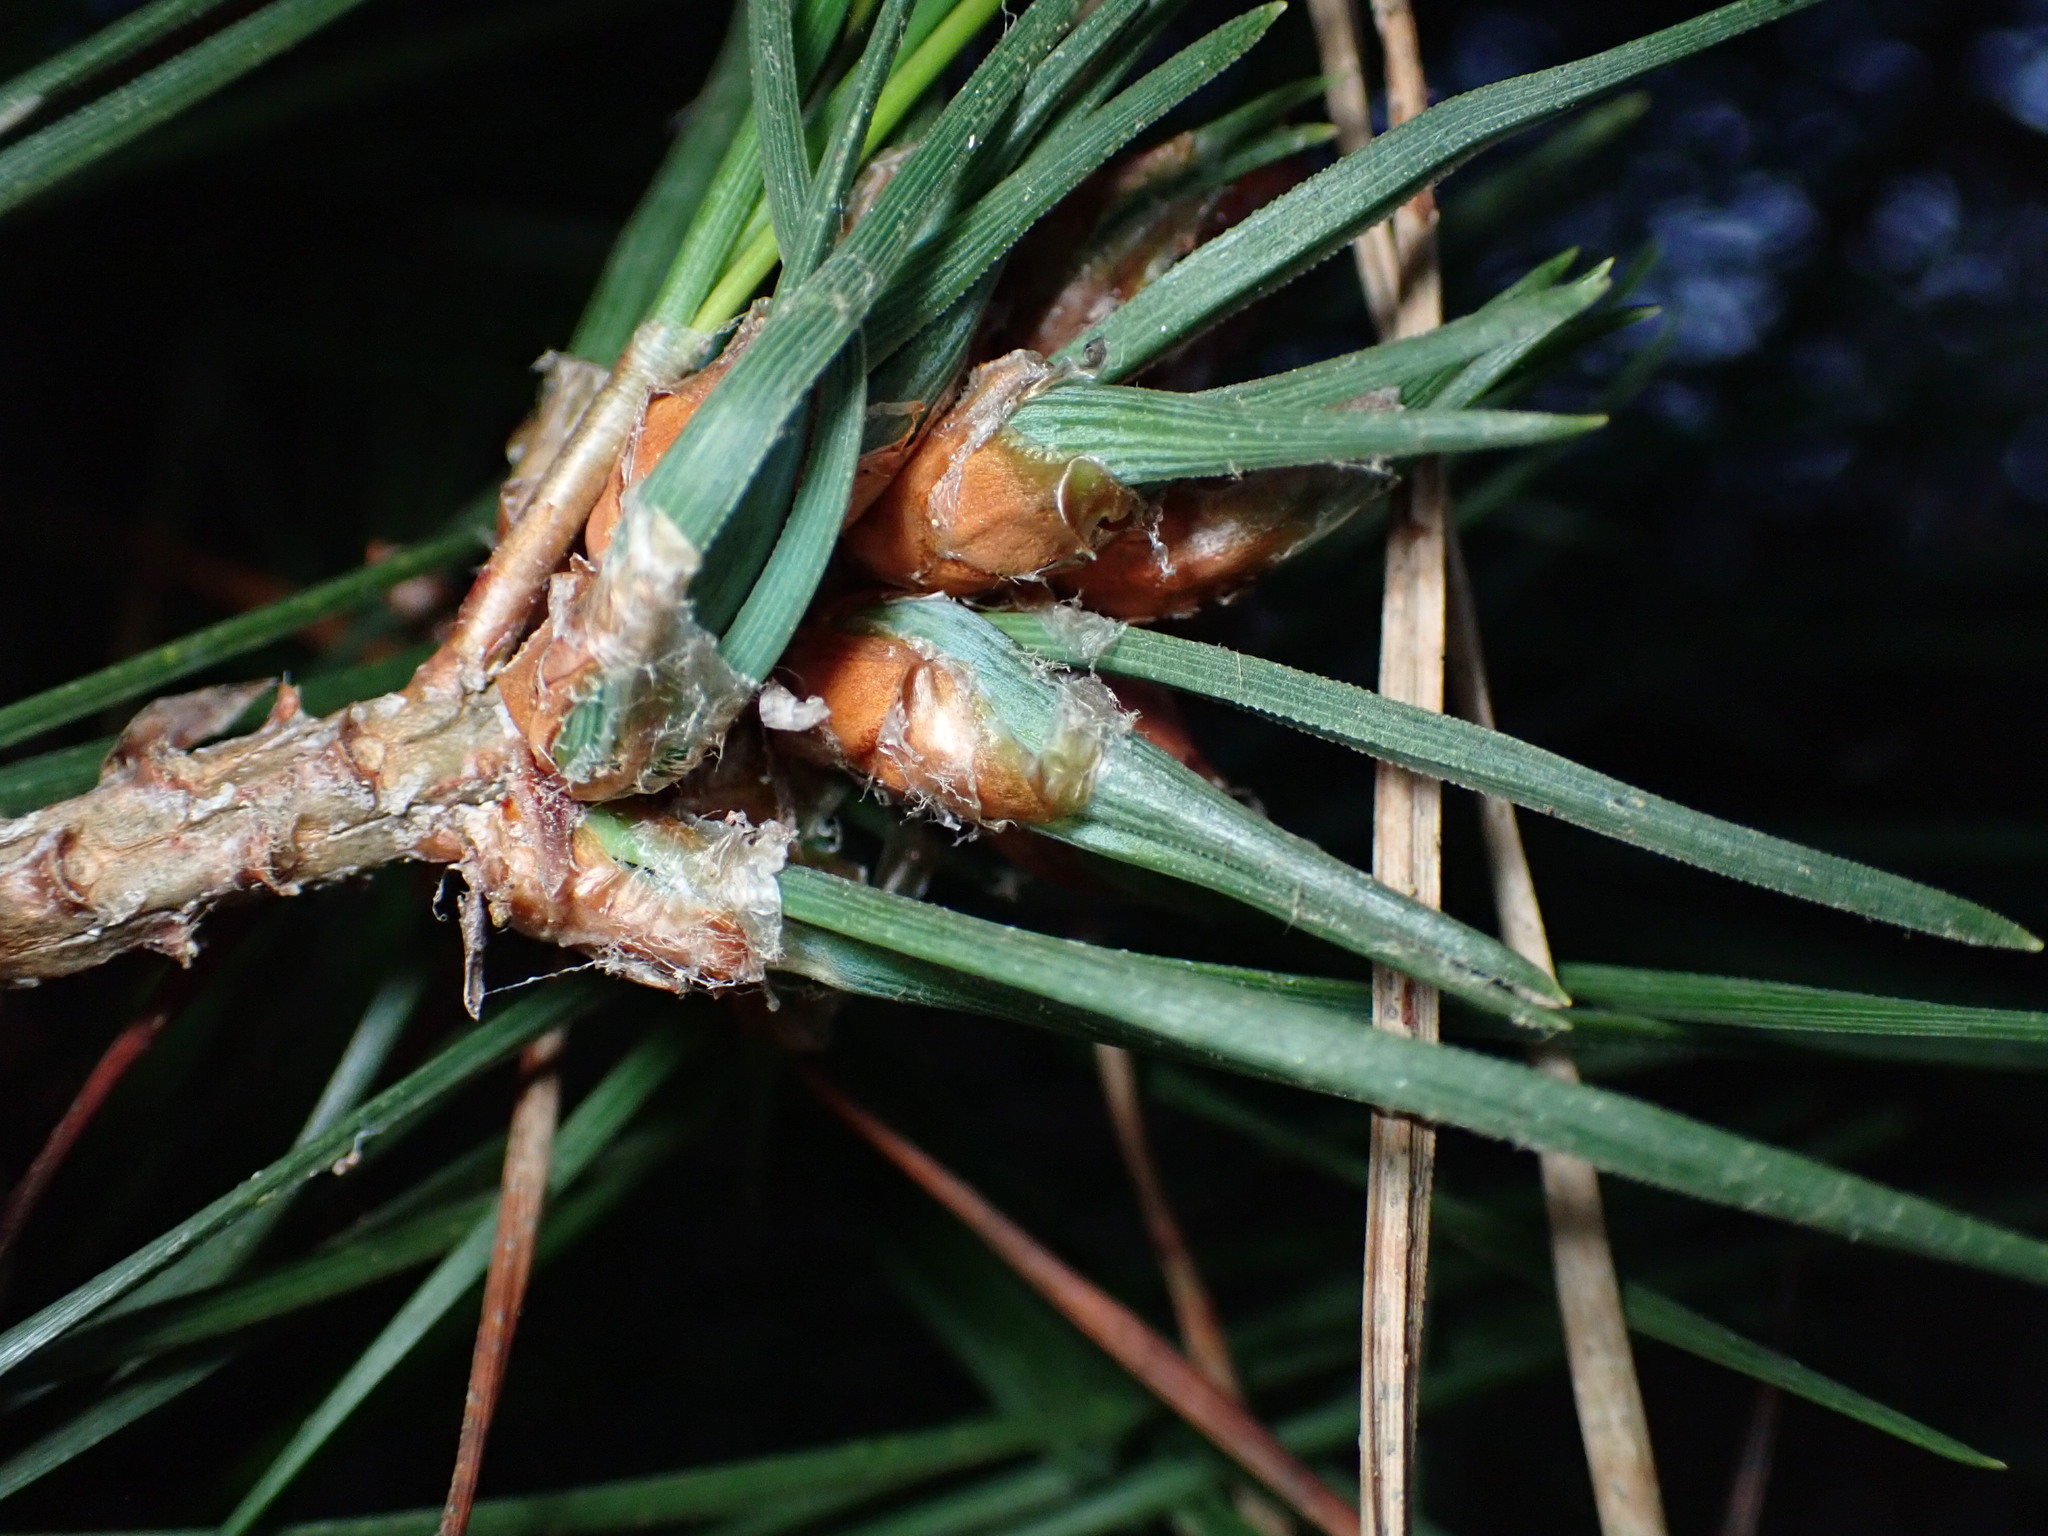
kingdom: Animalia
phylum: Arthropoda
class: Insecta
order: Diptera
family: Cecidomyiidae
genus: Thecodiplosis
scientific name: Thecodiplosis piniradiatae
